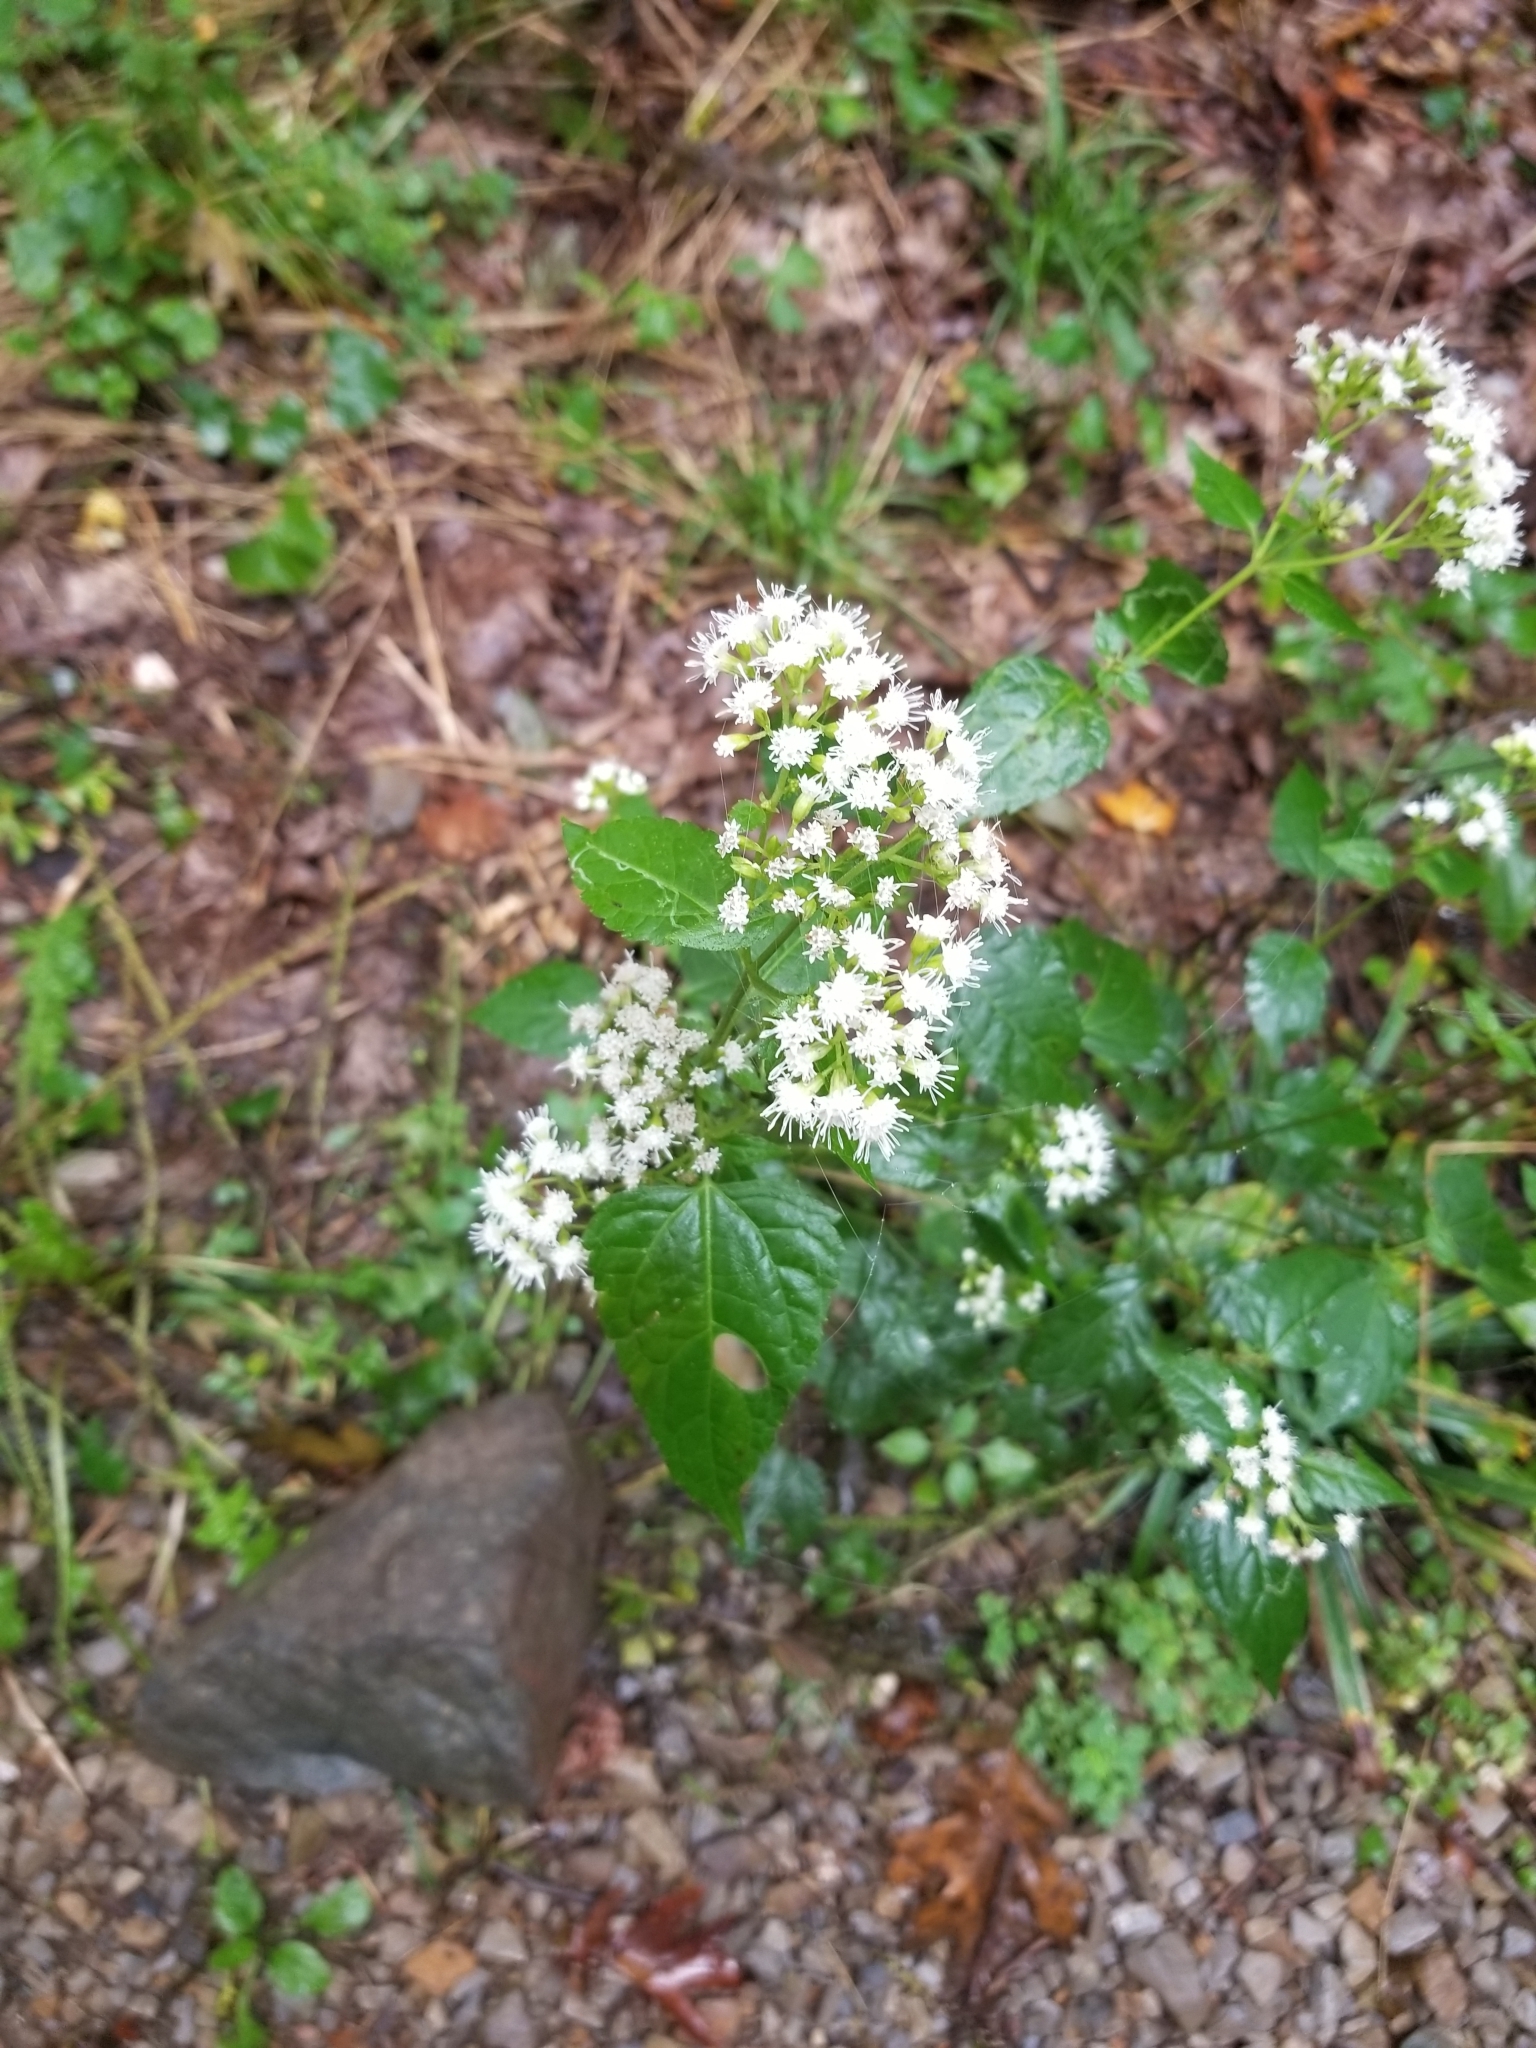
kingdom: Plantae
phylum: Tracheophyta
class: Magnoliopsida
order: Asterales
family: Asteraceae
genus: Ageratina
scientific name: Ageratina altissima
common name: White snakeroot
